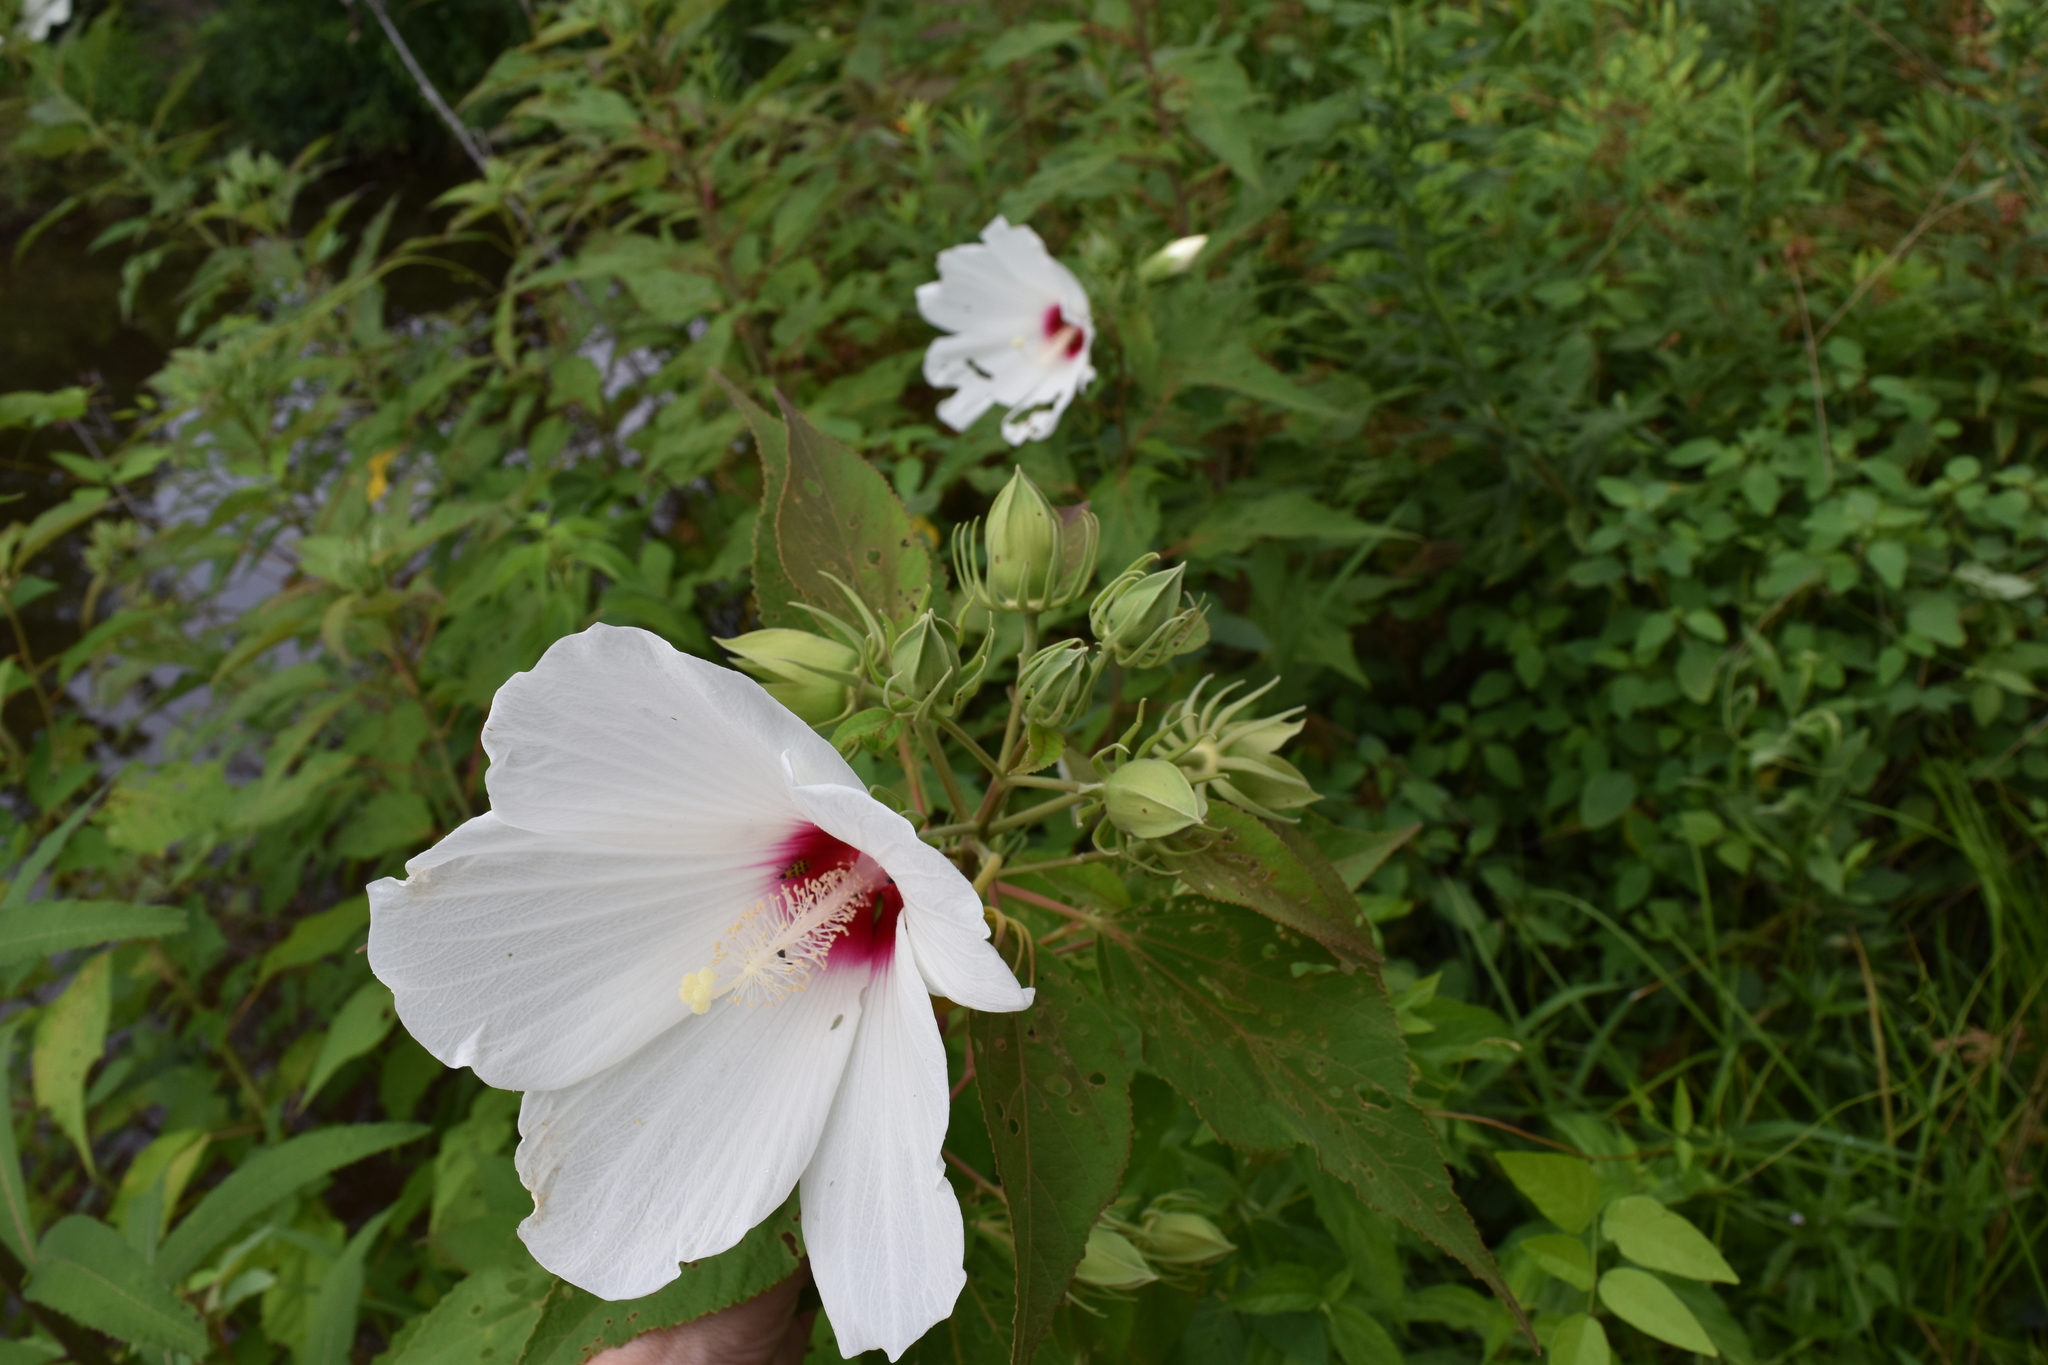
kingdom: Plantae
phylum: Tracheophyta
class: Magnoliopsida
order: Malvales
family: Malvaceae
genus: Hibiscus
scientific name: Hibiscus moscheutos
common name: Common rose-mallow
